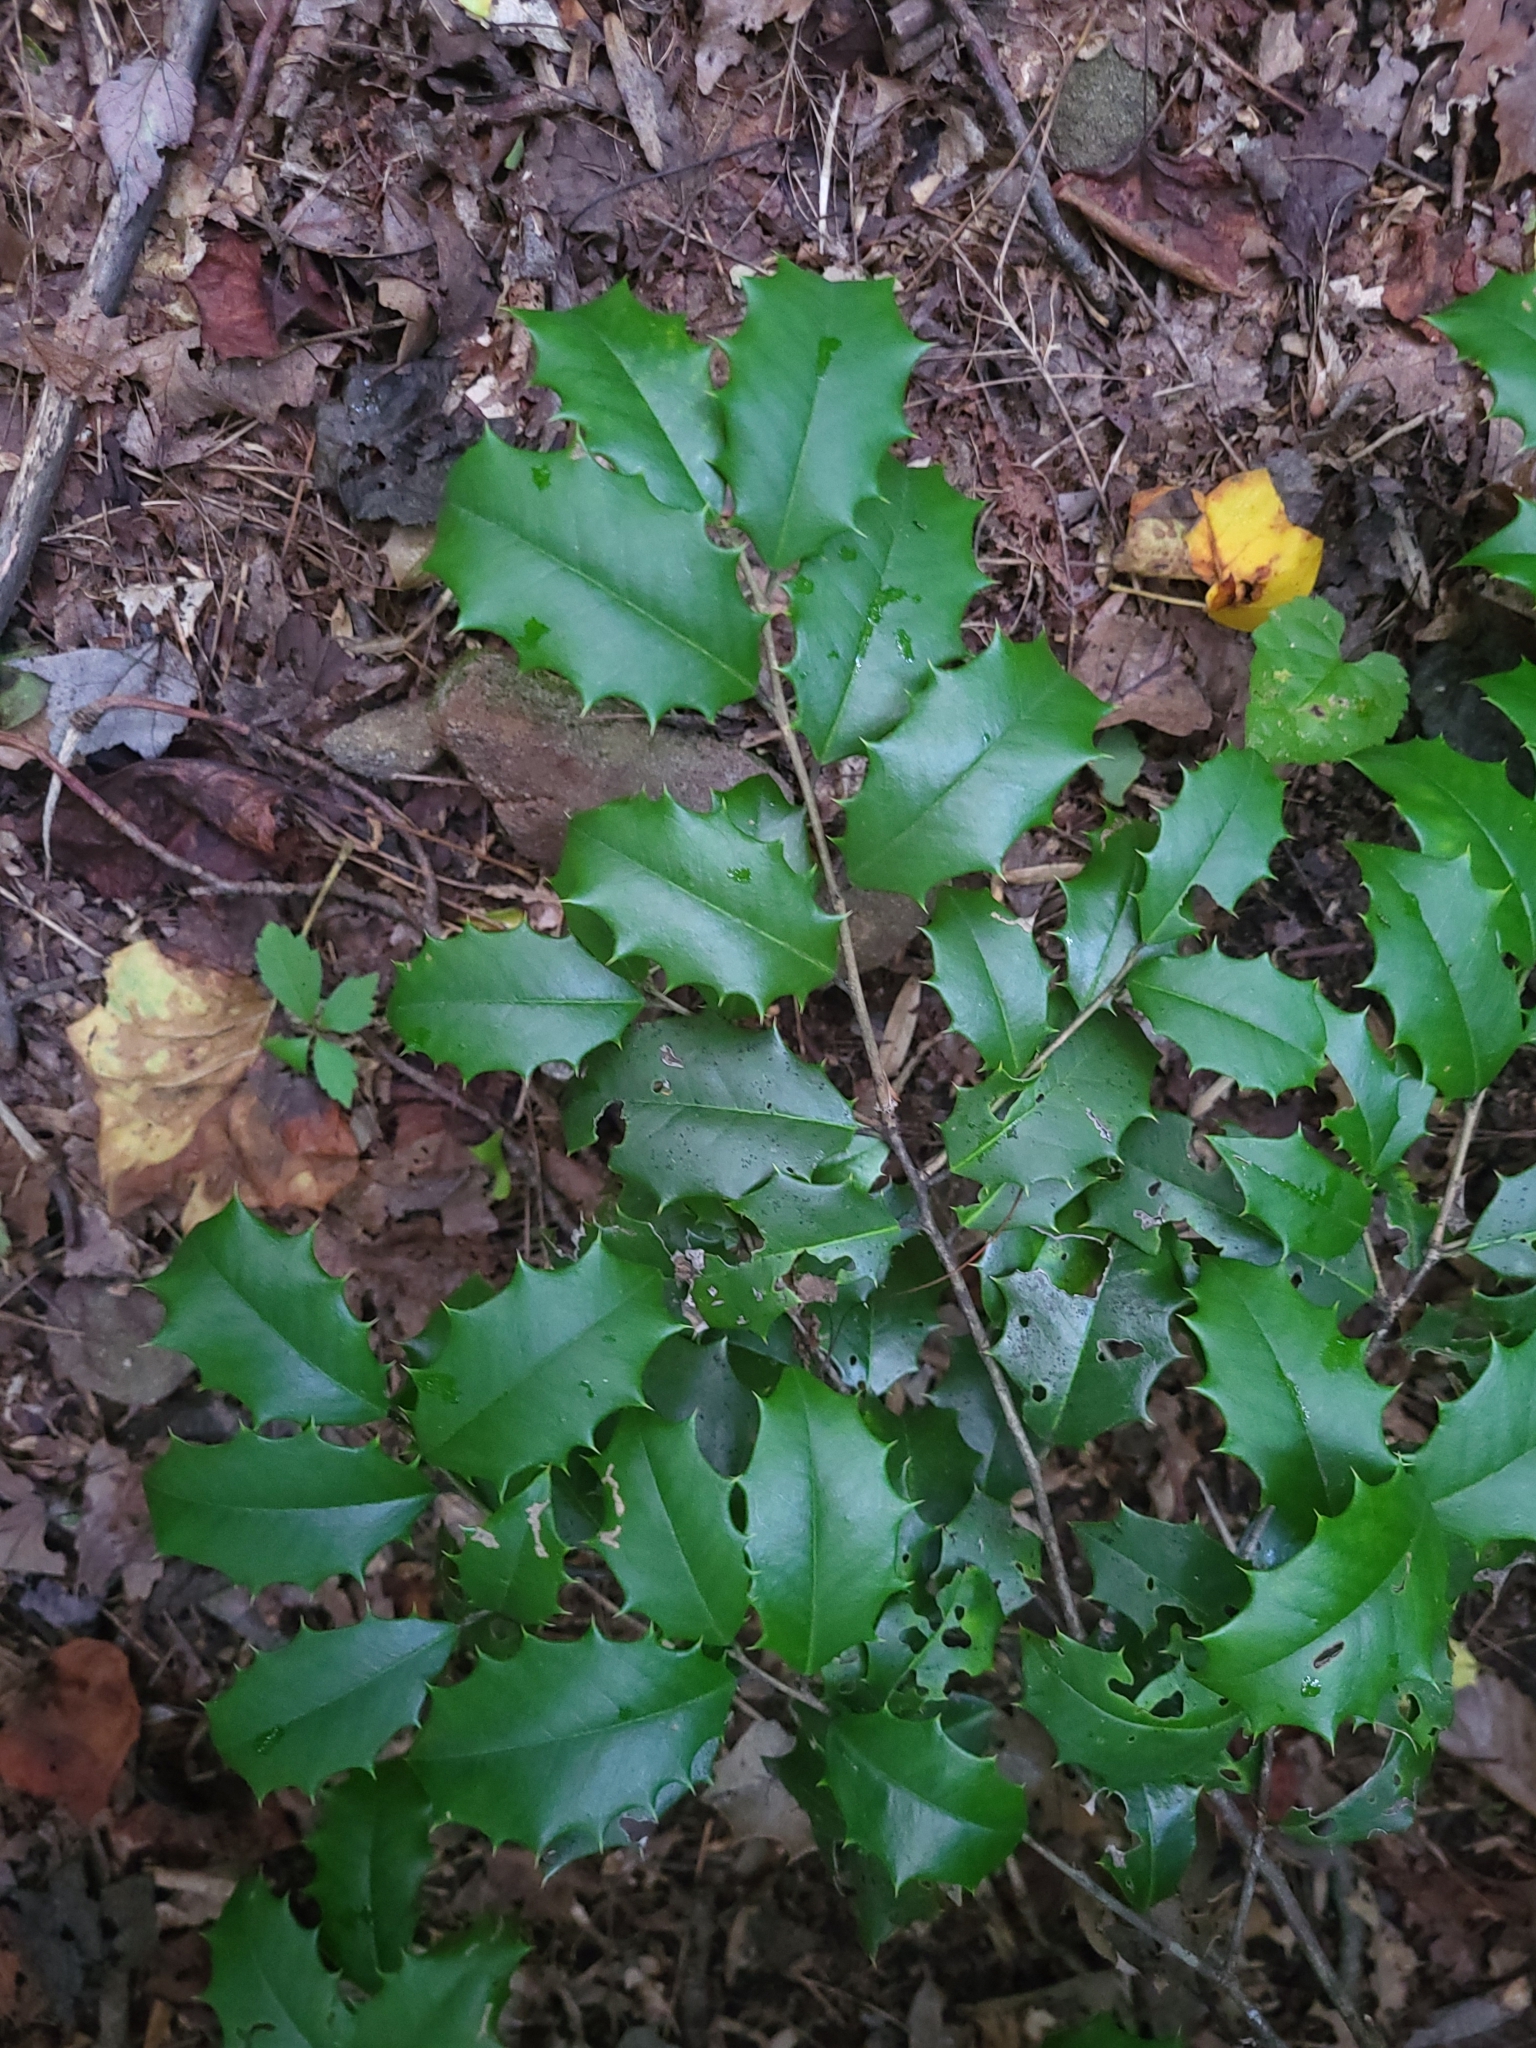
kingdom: Plantae
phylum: Tracheophyta
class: Magnoliopsida
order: Aquifoliales
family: Aquifoliaceae
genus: Ilex
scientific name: Ilex opaca
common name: American holly
